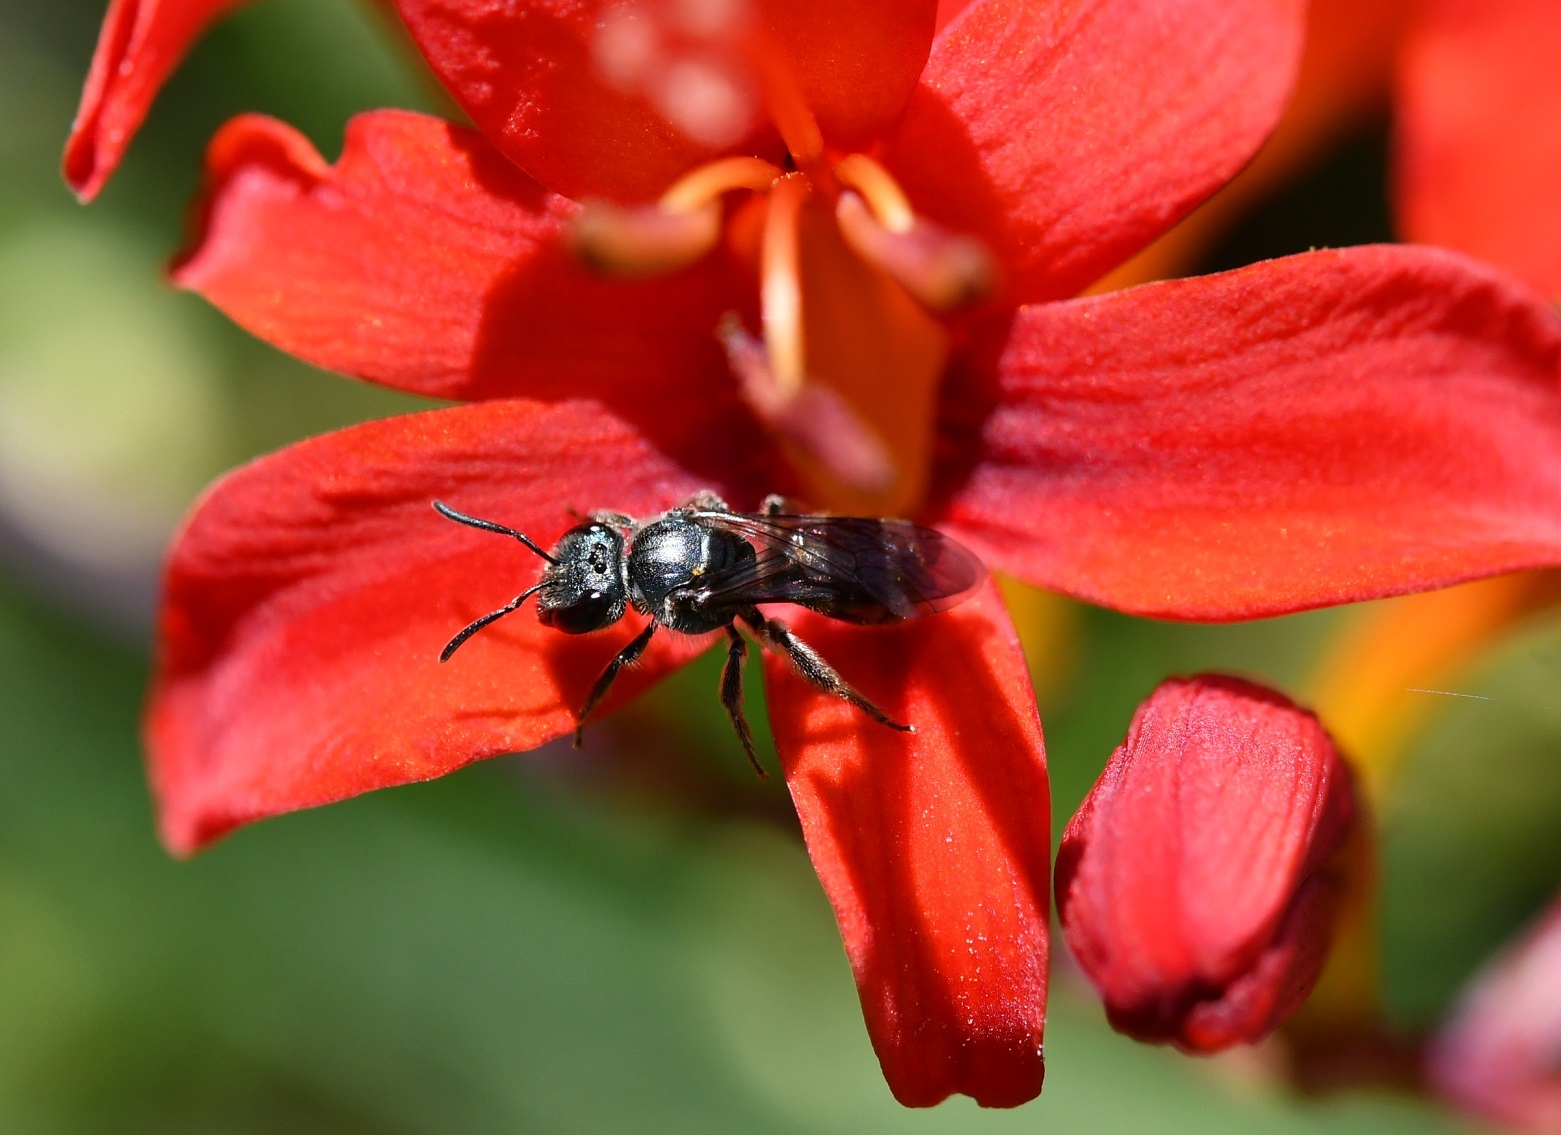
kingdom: Animalia
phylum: Arthropoda
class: Insecta
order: Hymenoptera
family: Halictidae
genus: Augochlora
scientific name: Augochlora nigrocyanea
